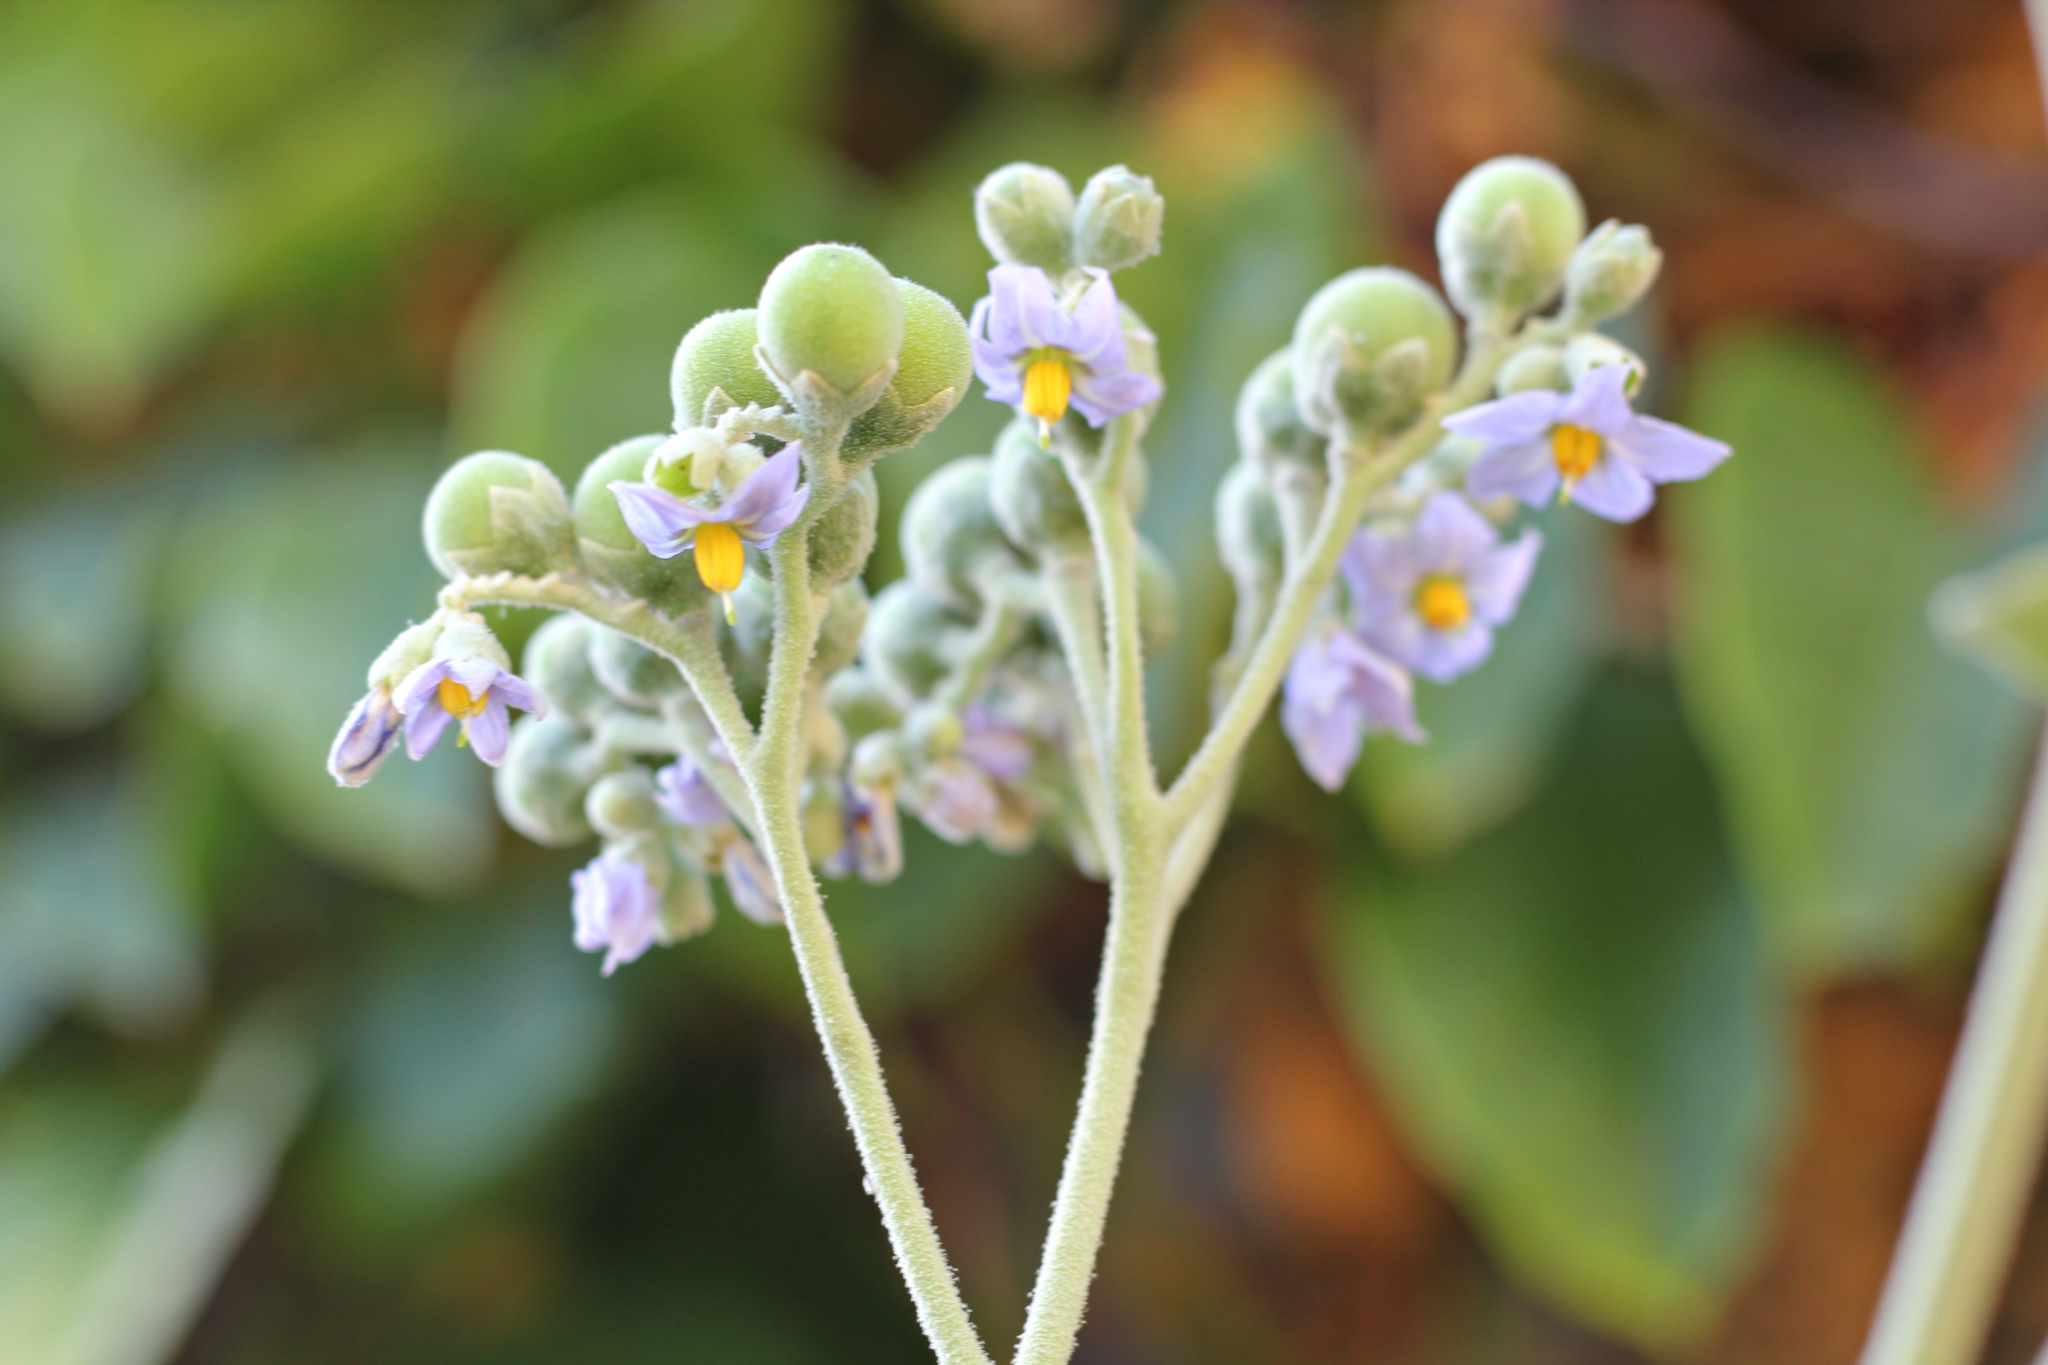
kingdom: Plantae
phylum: Tracheophyta
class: Magnoliopsida
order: Solanales
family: Solanaceae
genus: Solanum
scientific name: Solanum granulosoleprosum
